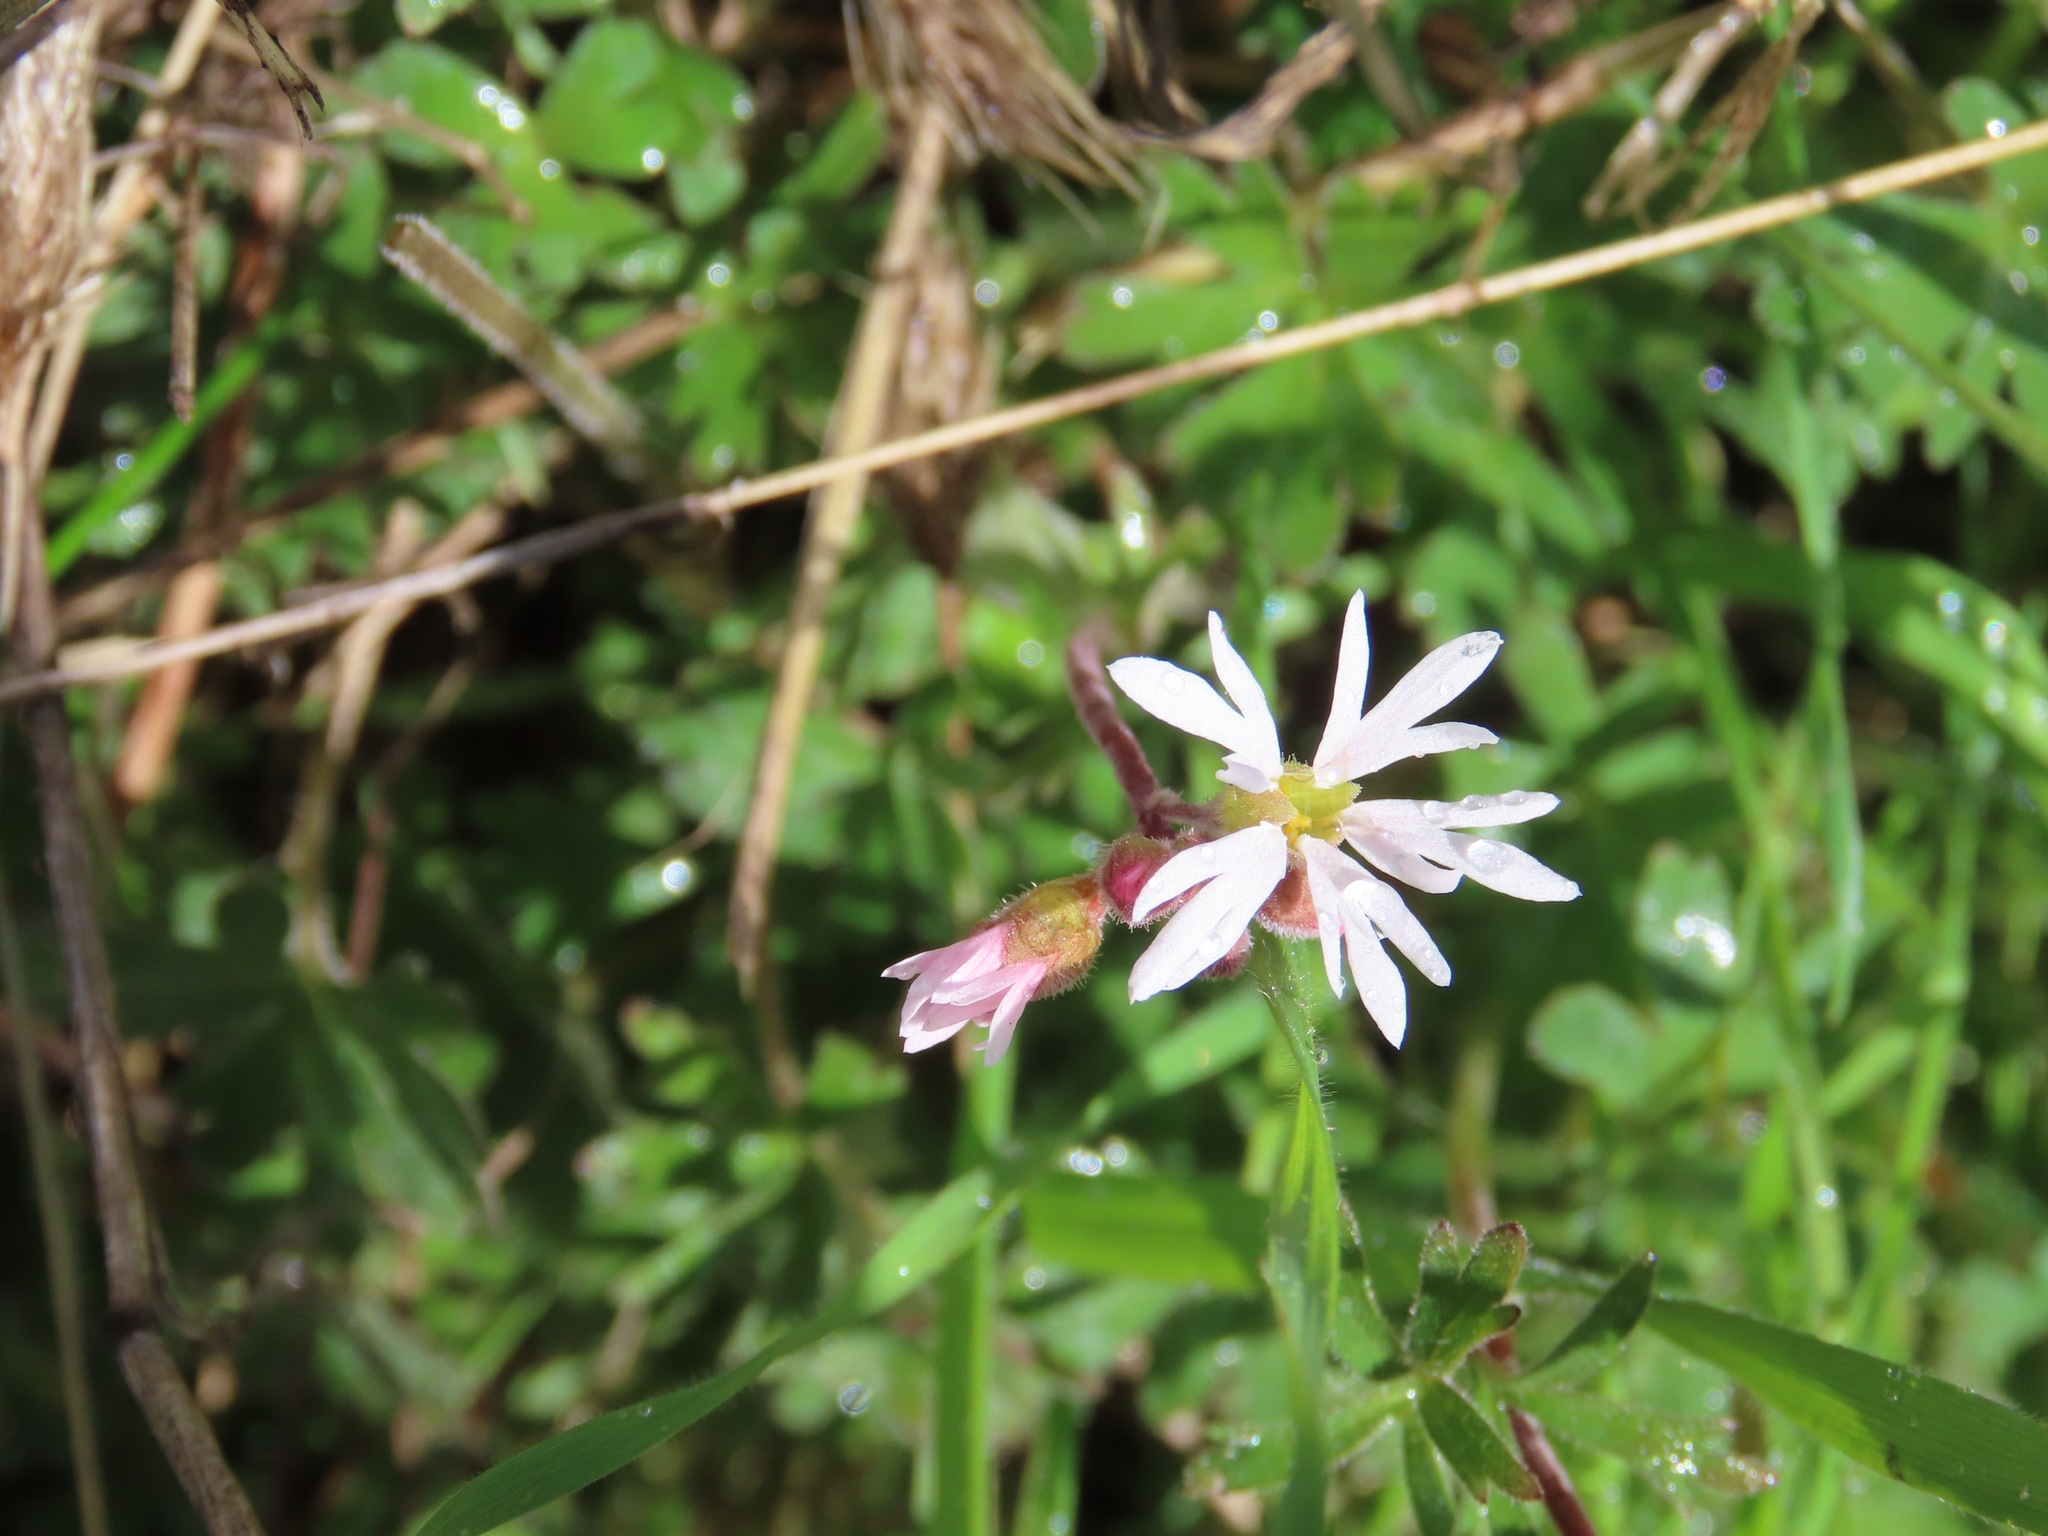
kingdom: Plantae
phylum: Tracheophyta
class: Magnoliopsida
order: Saxifragales
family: Saxifragaceae
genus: Lithophragma
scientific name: Lithophragma parviflorum
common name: Small-flowered fringe-cup
